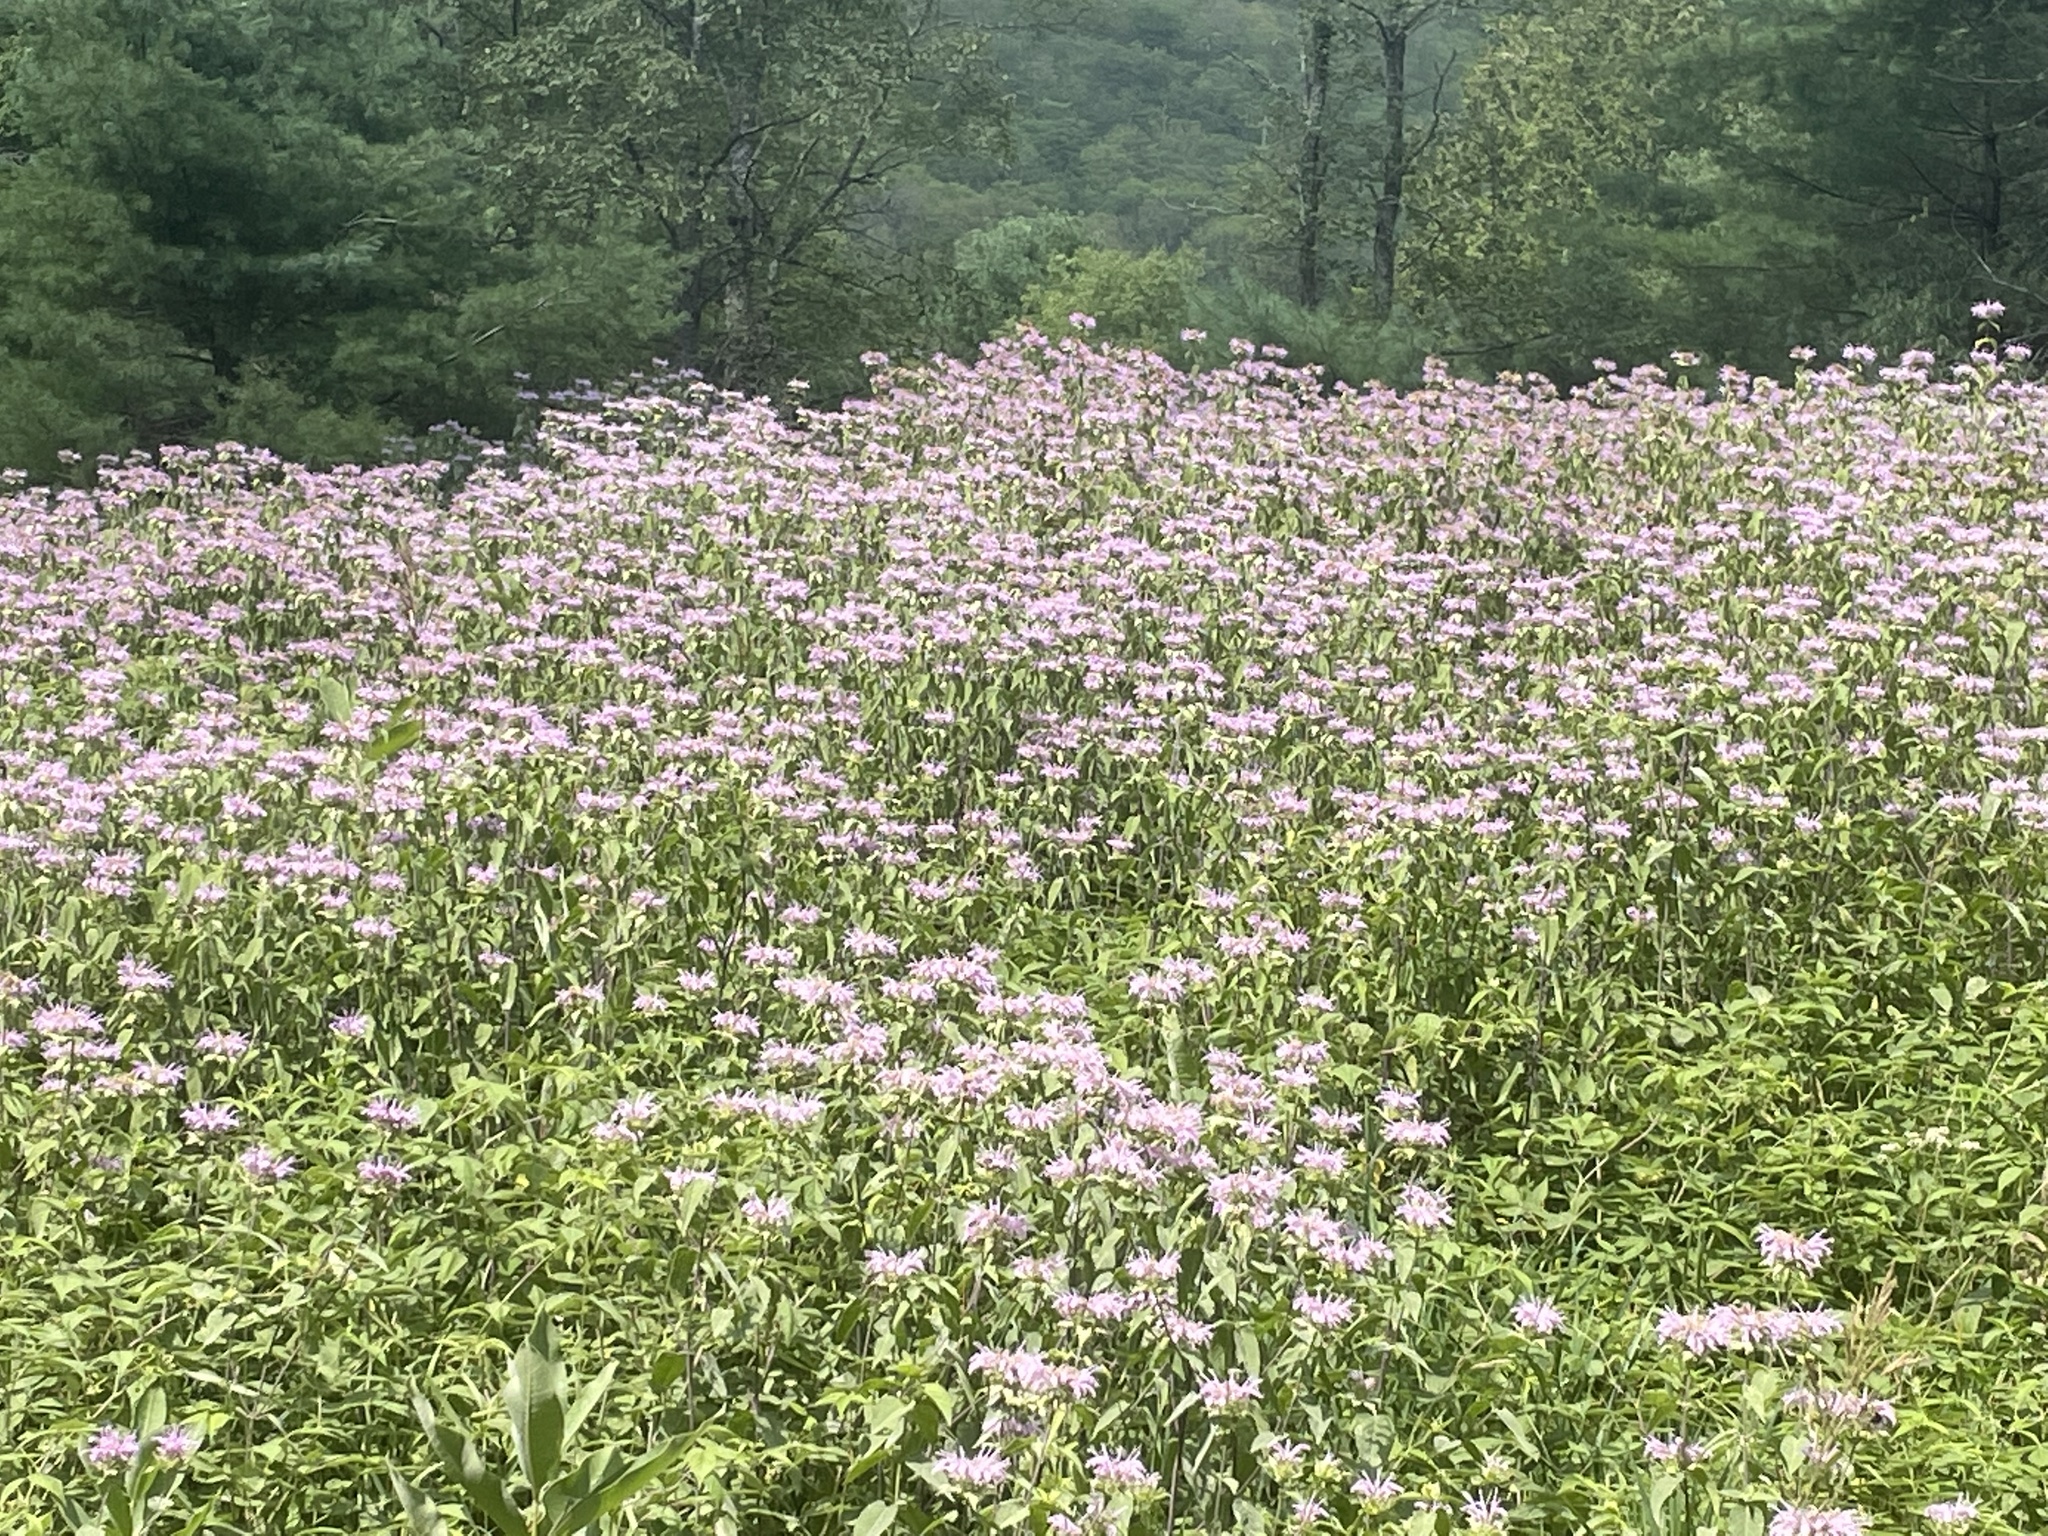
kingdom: Plantae
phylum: Tracheophyta
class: Magnoliopsida
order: Lamiales
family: Lamiaceae
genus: Monarda
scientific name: Monarda fistulosa
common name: Purple beebalm
